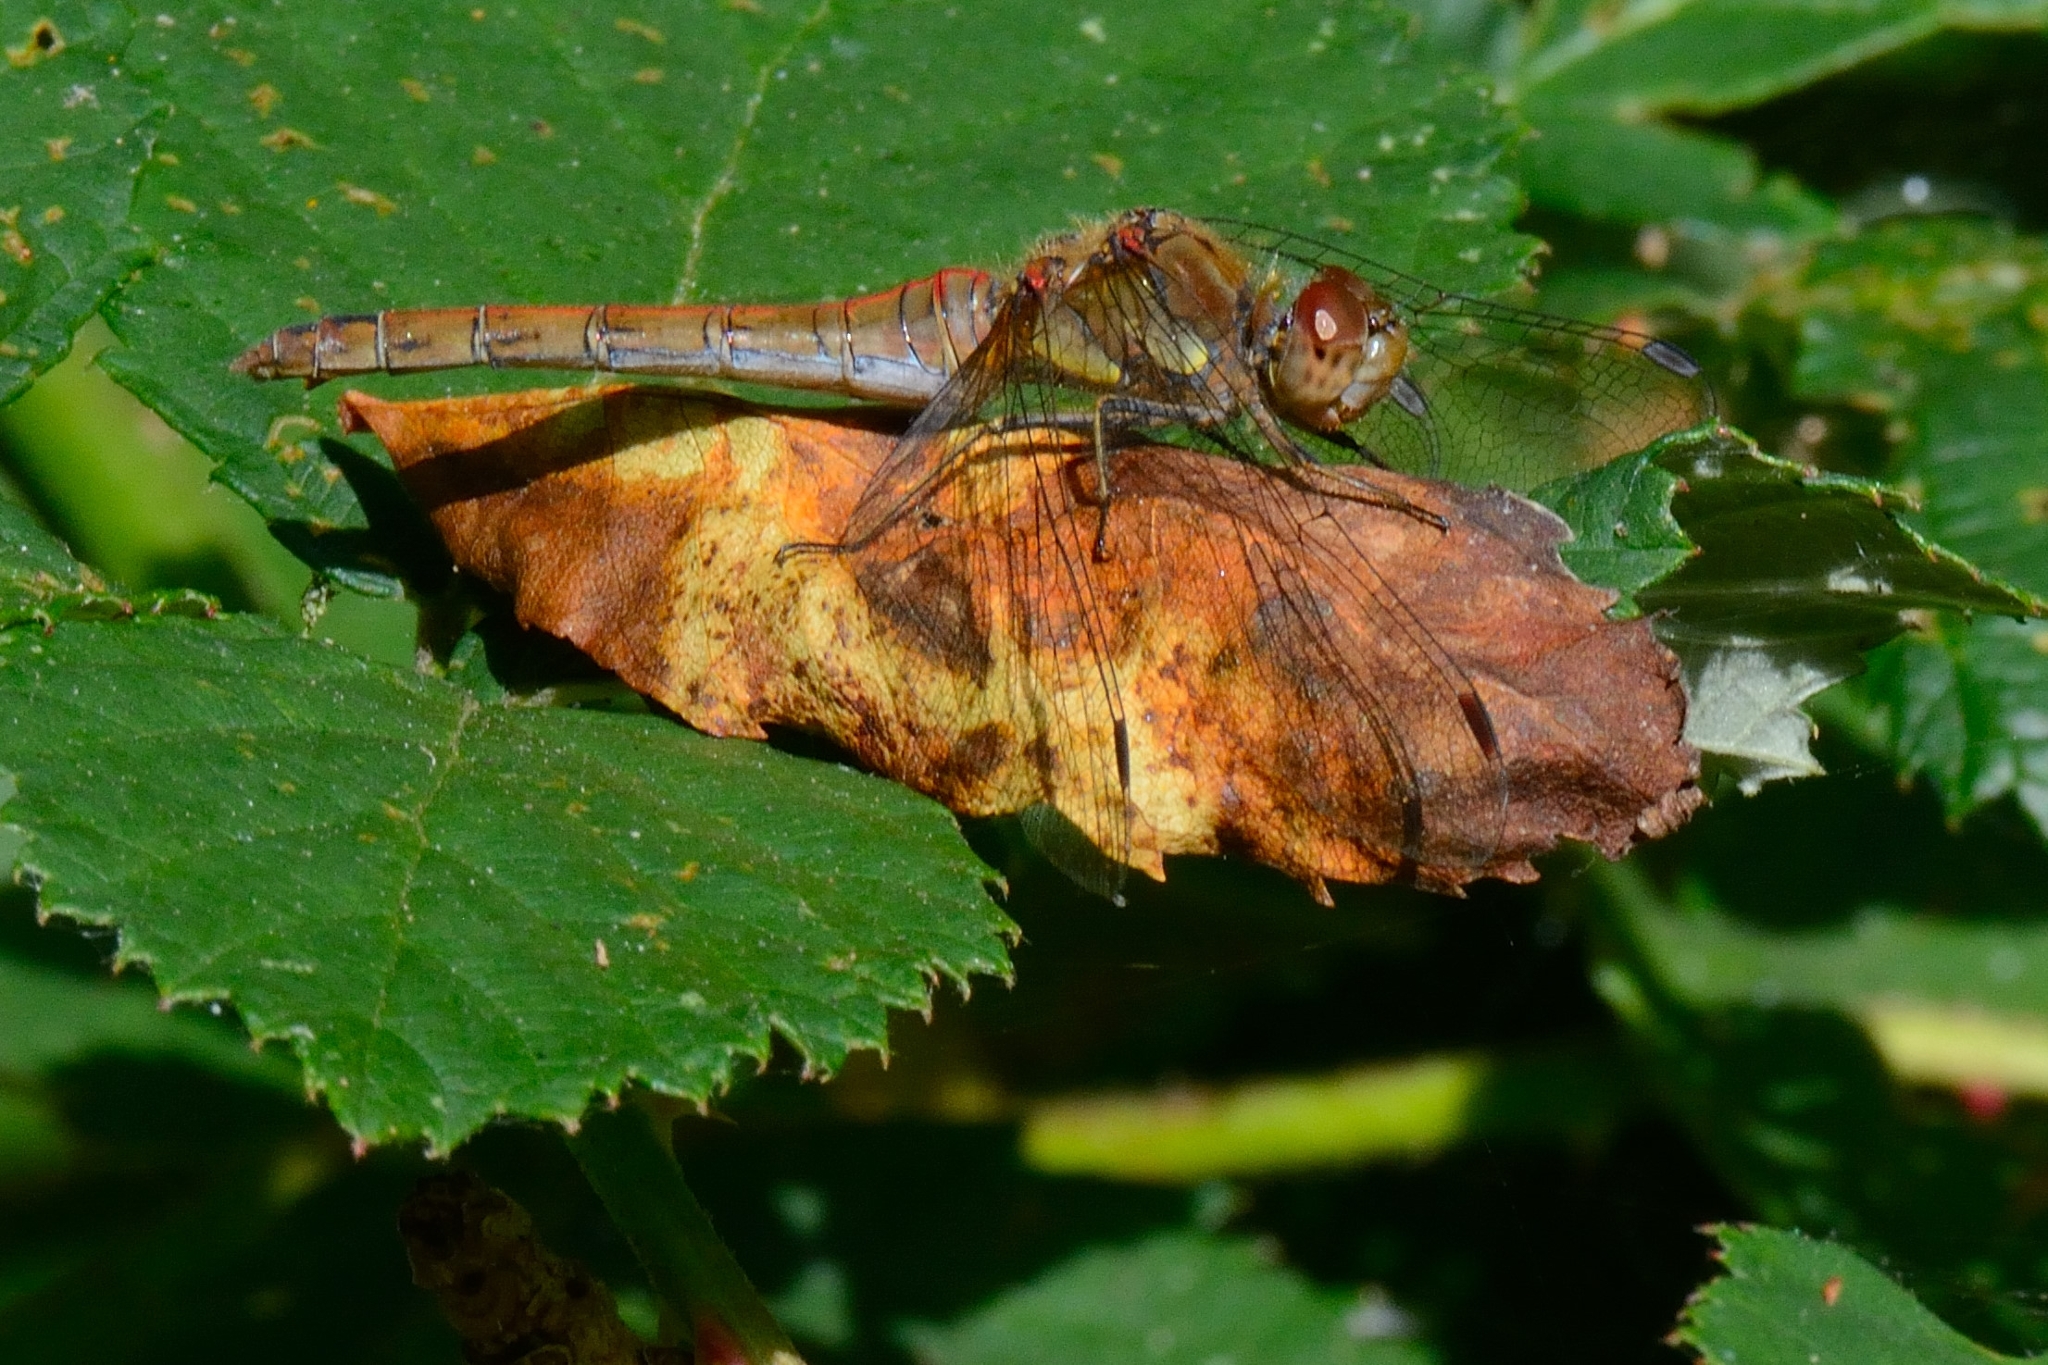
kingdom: Animalia
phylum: Arthropoda
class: Insecta
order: Odonata
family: Libellulidae
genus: Sympetrum
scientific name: Sympetrum striolatum
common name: Common darter
